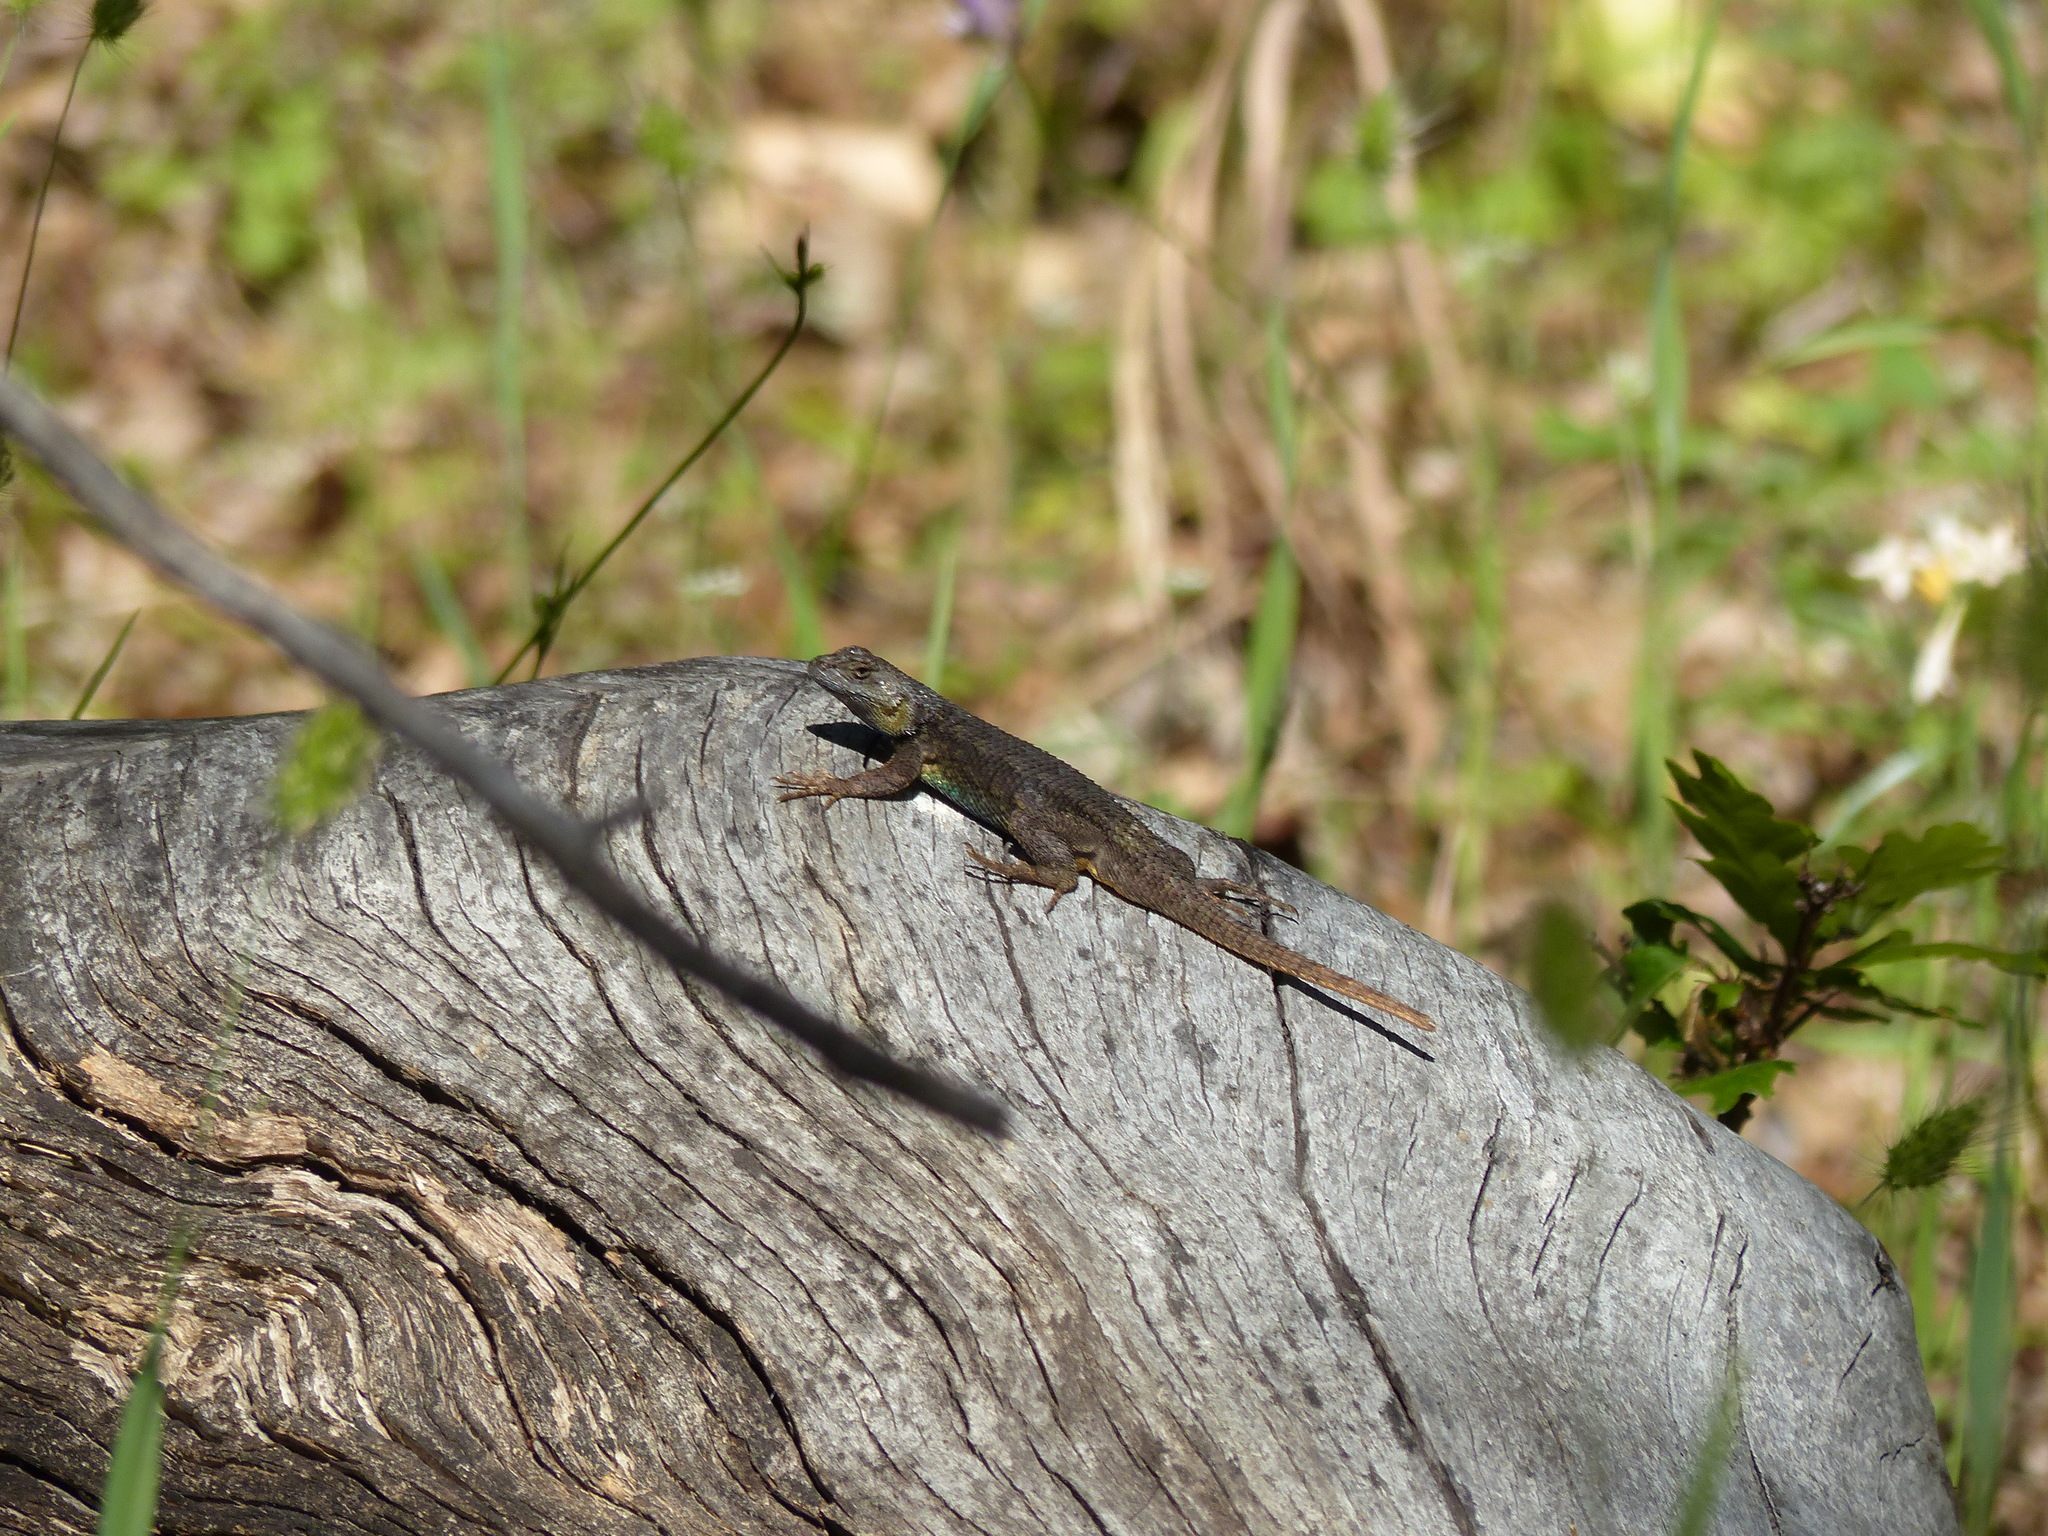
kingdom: Animalia
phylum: Chordata
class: Squamata
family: Phrynosomatidae
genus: Sceloporus
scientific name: Sceloporus occidentalis
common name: Western fence lizard
